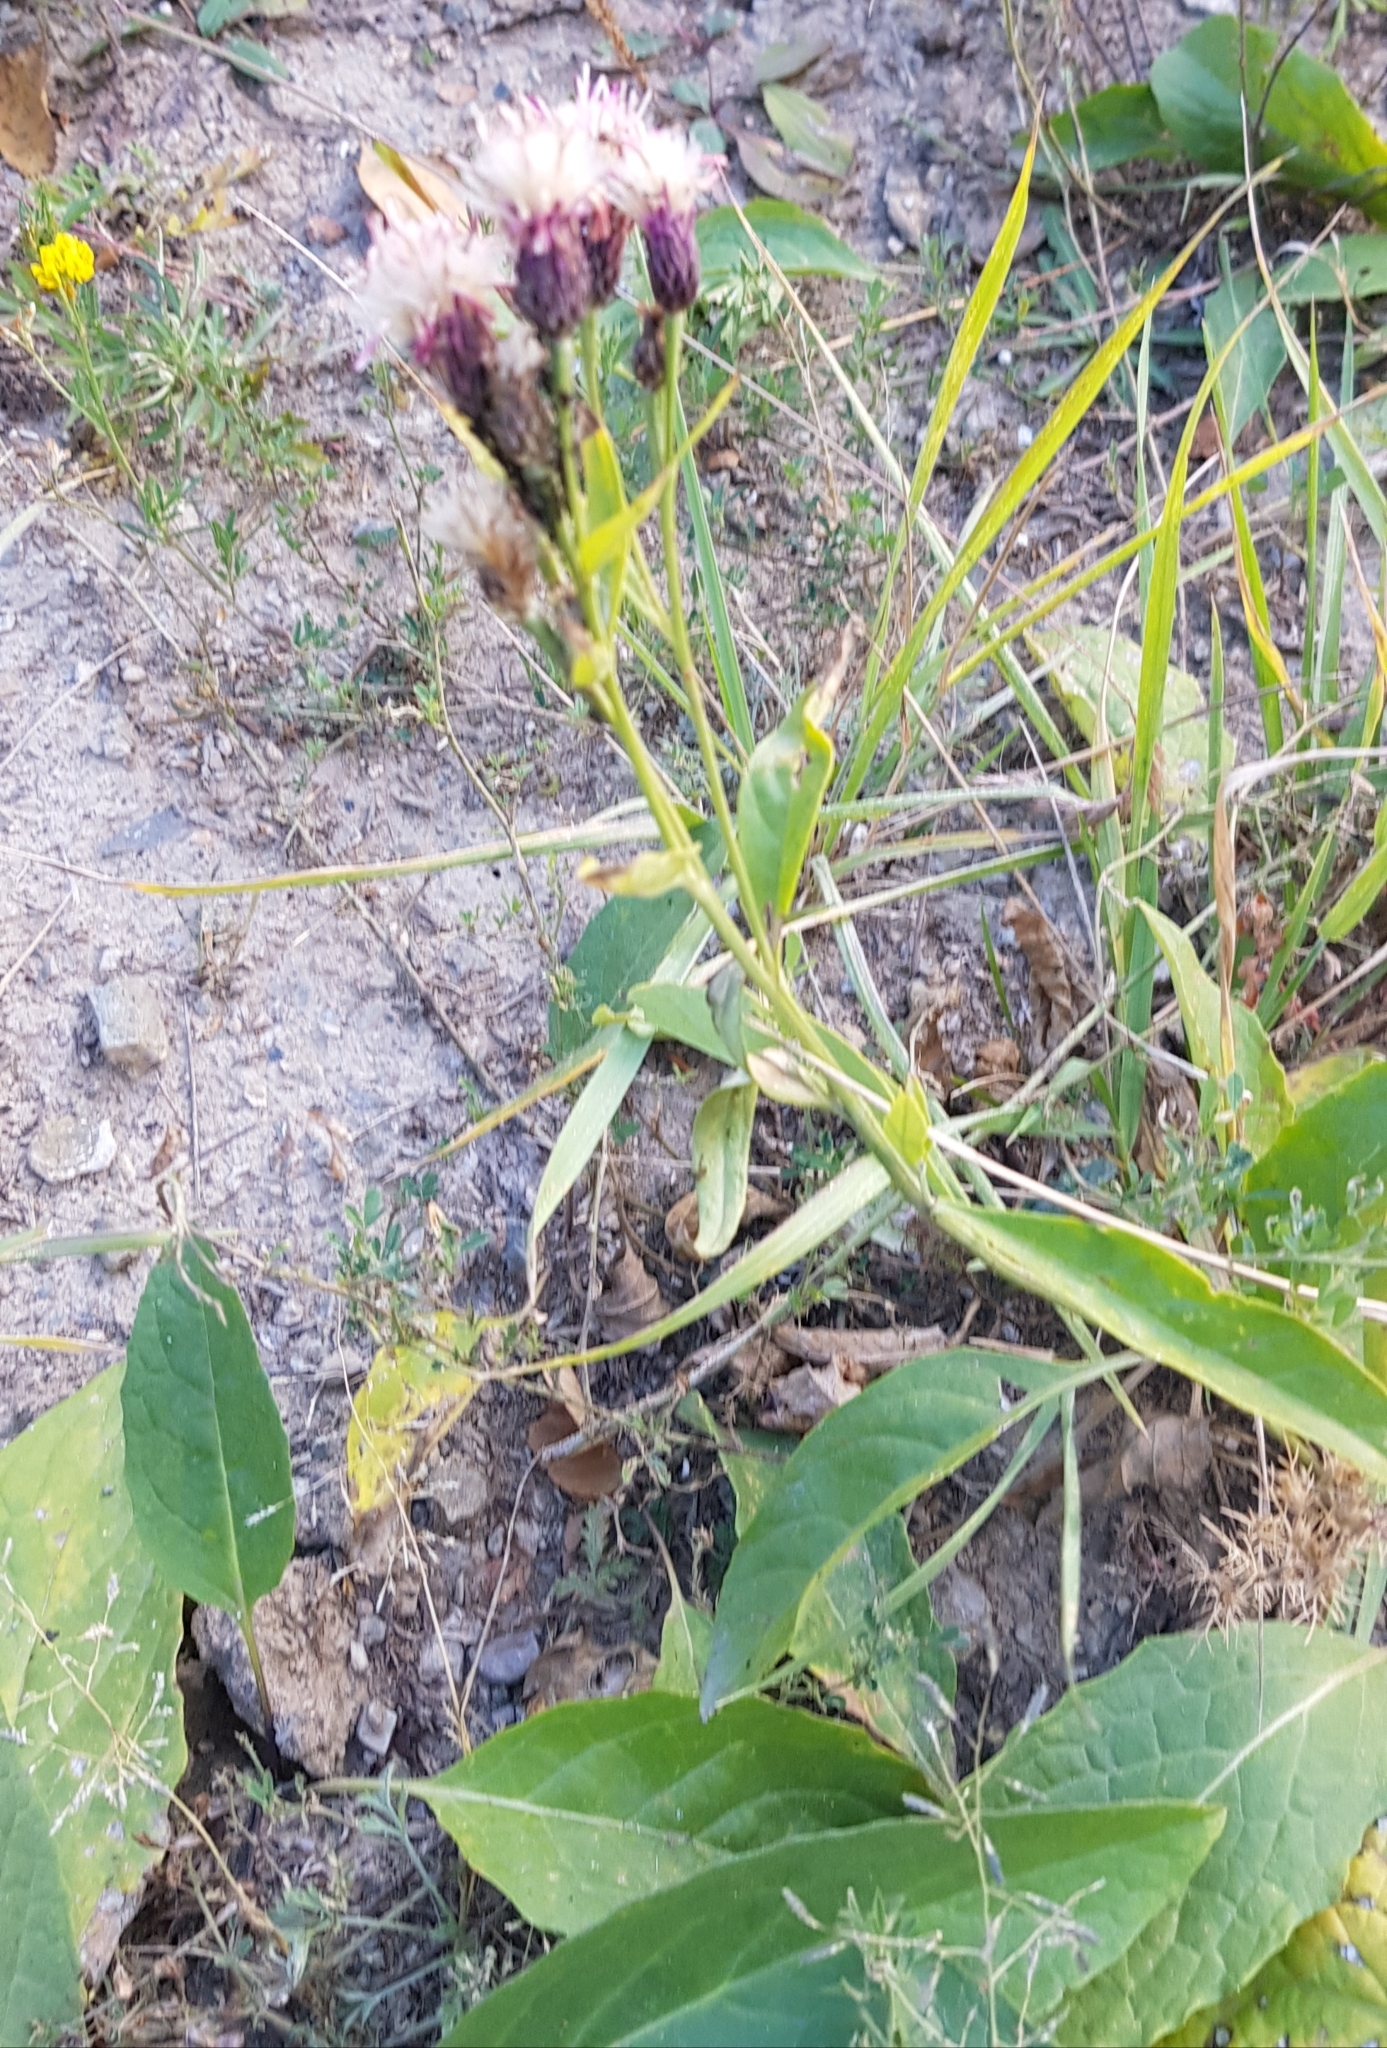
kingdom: Plantae
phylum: Tracheophyta
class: Magnoliopsida
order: Asterales
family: Asteraceae
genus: Saussurea
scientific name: Saussurea amara
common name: Alberta sawwort
